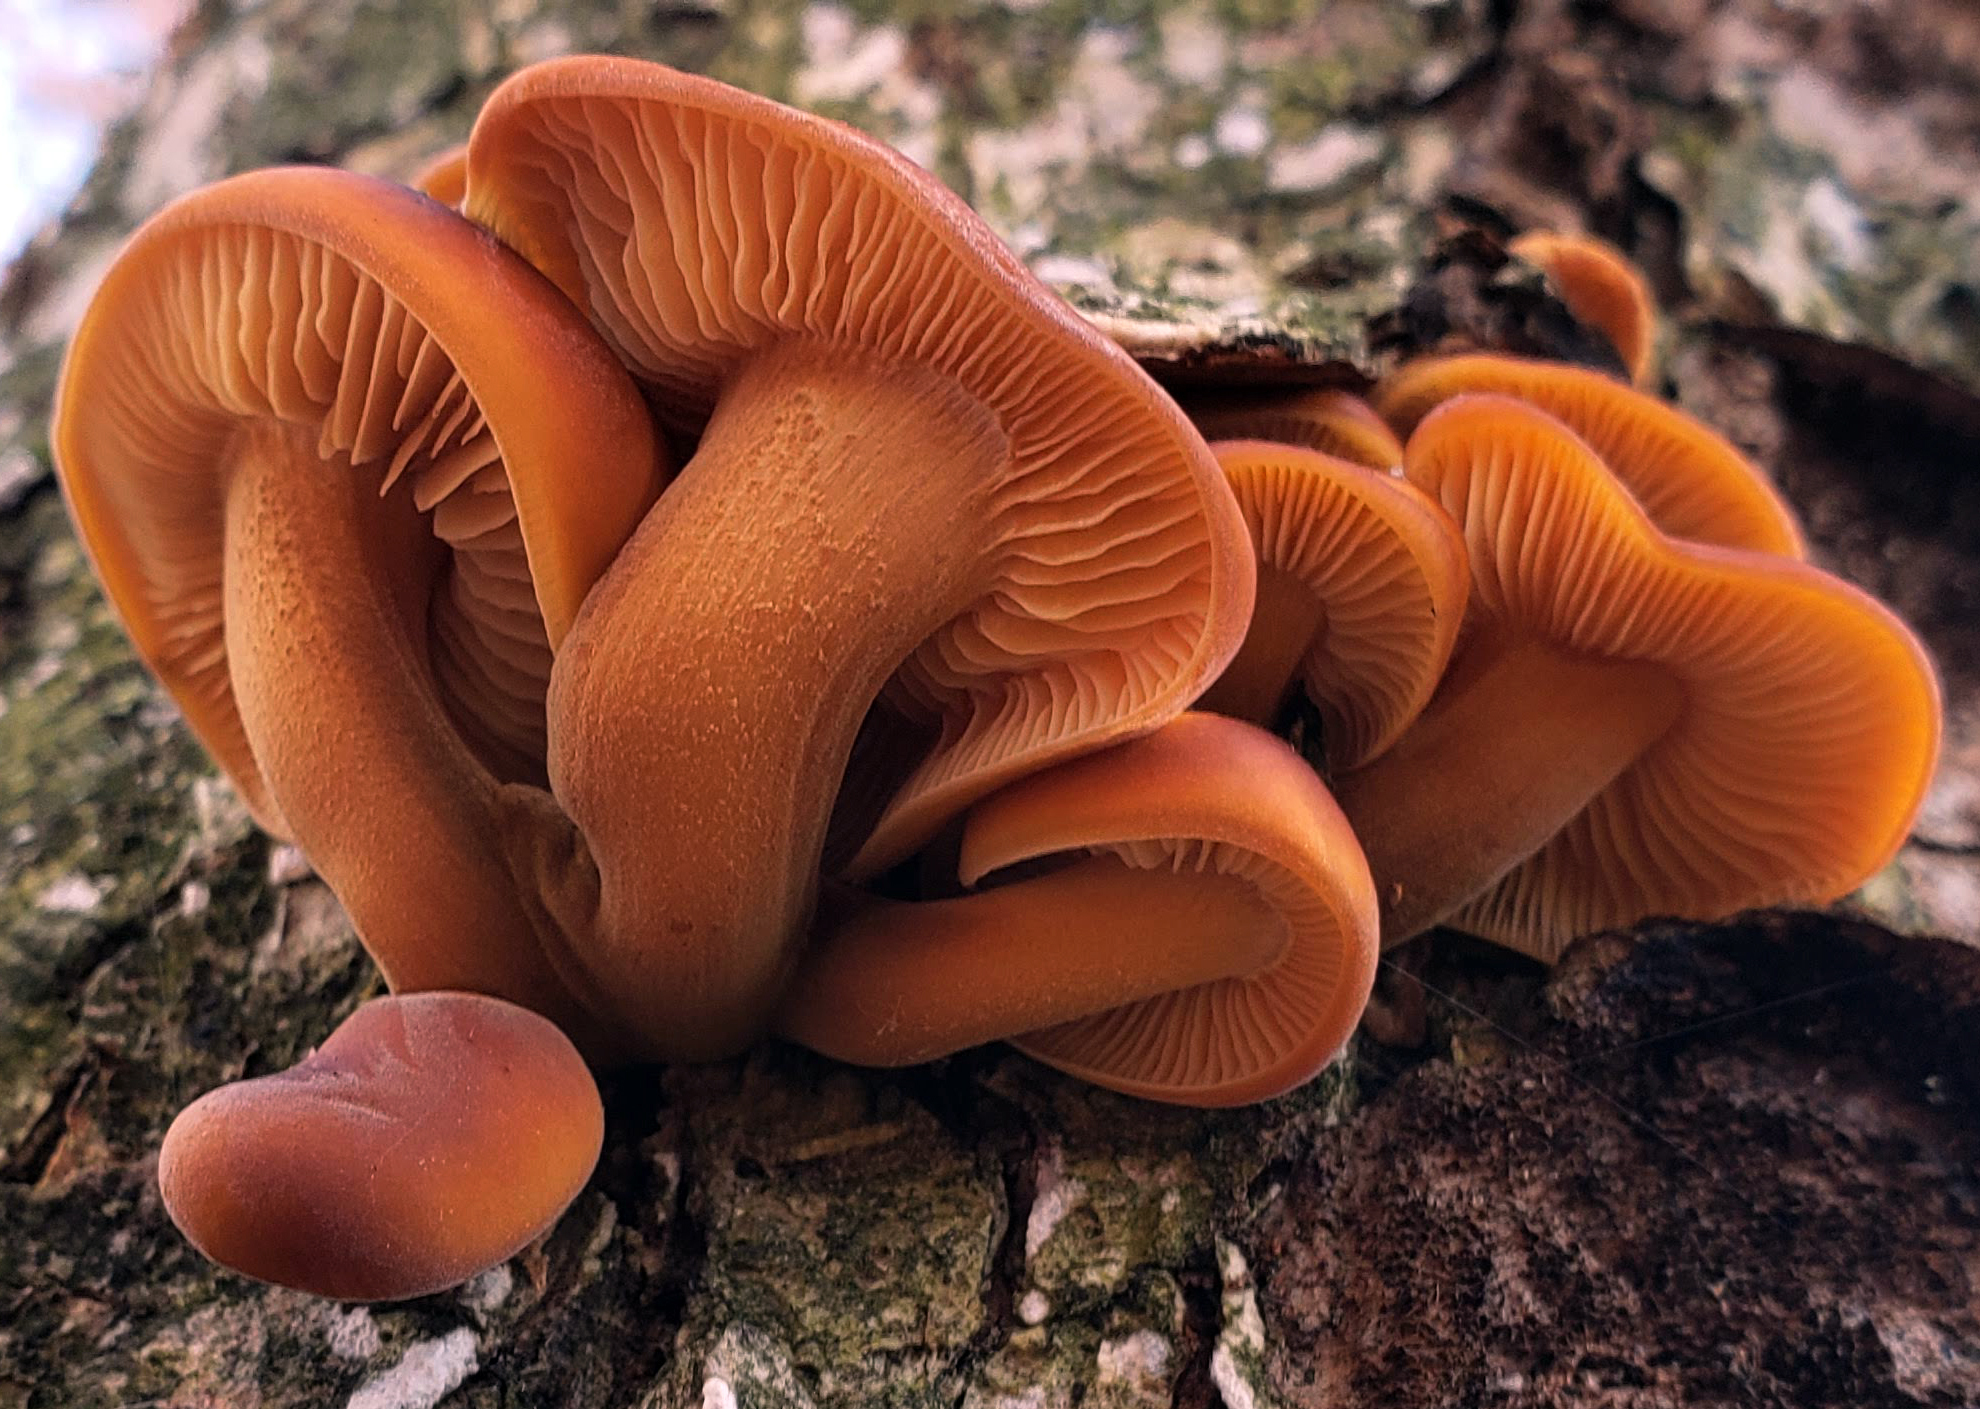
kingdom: Fungi
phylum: Basidiomycota
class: Agaricomycetes
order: Agaricales
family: Physalacriaceae
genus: Flammulina
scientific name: Flammulina velutipes
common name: Velvet shank
